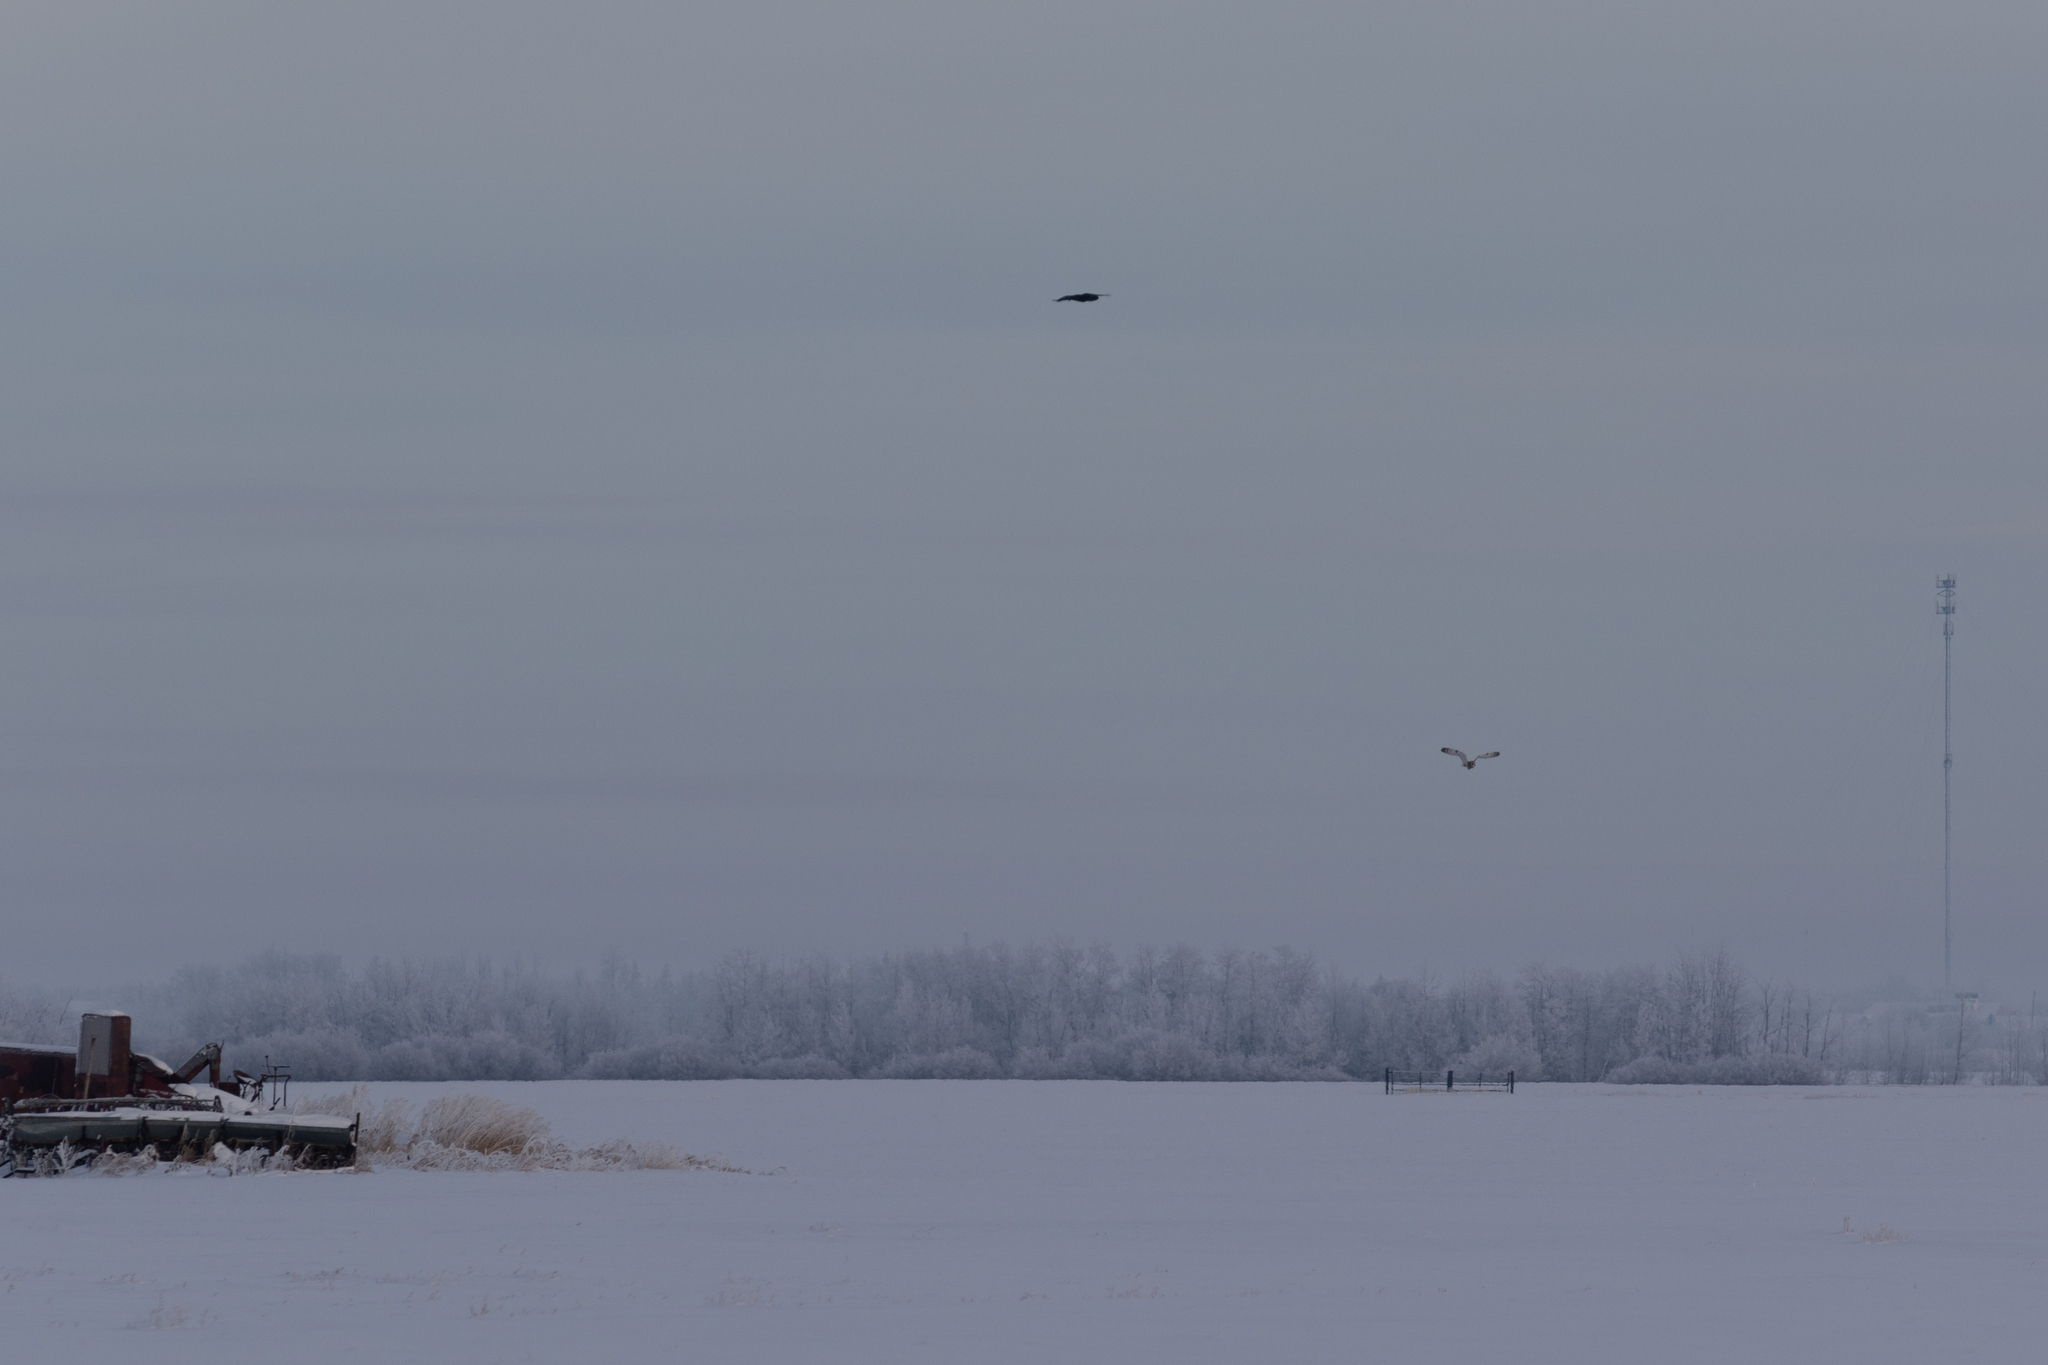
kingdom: Animalia
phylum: Chordata
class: Aves
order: Strigiformes
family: Strigidae
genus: Asio
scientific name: Asio flammeus
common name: Short-eared owl
